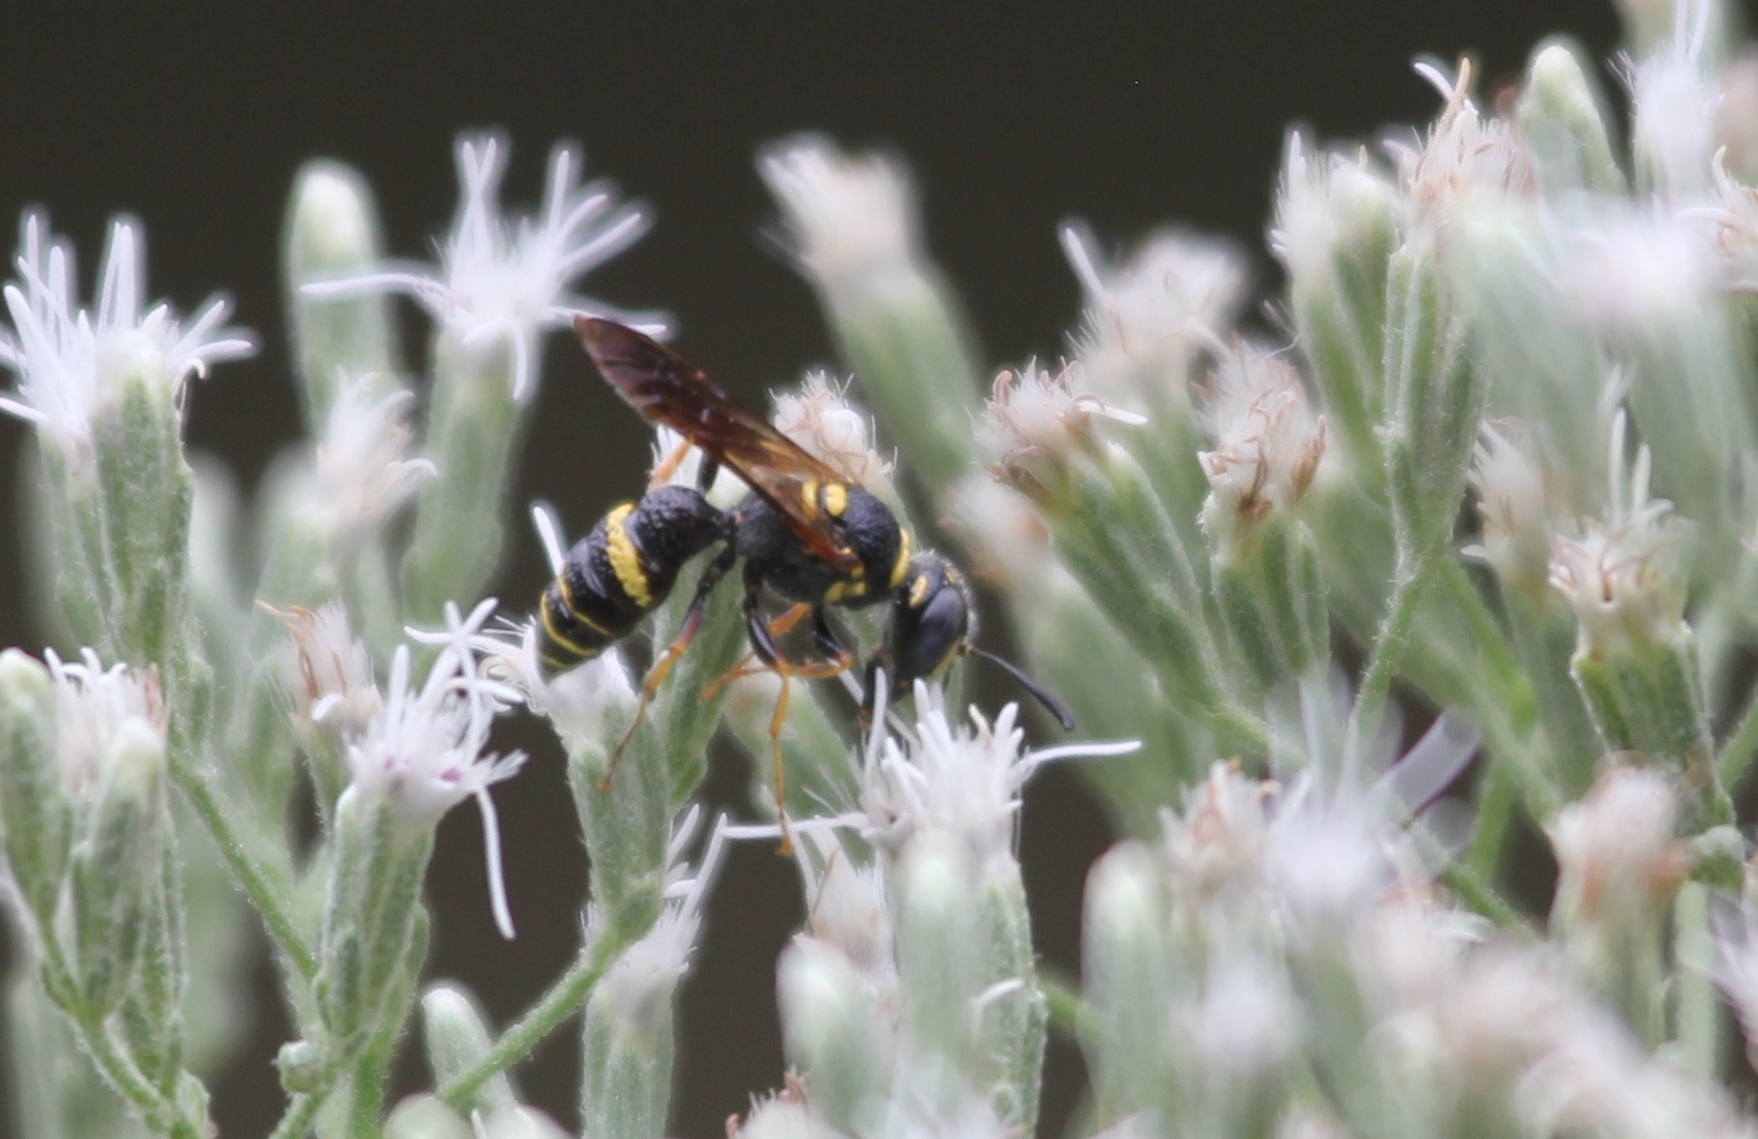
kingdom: Animalia
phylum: Arthropoda
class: Insecta
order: Hymenoptera
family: Crabronidae
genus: Philanthus
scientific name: Philanthus gibbosus
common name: Humped beewolf
